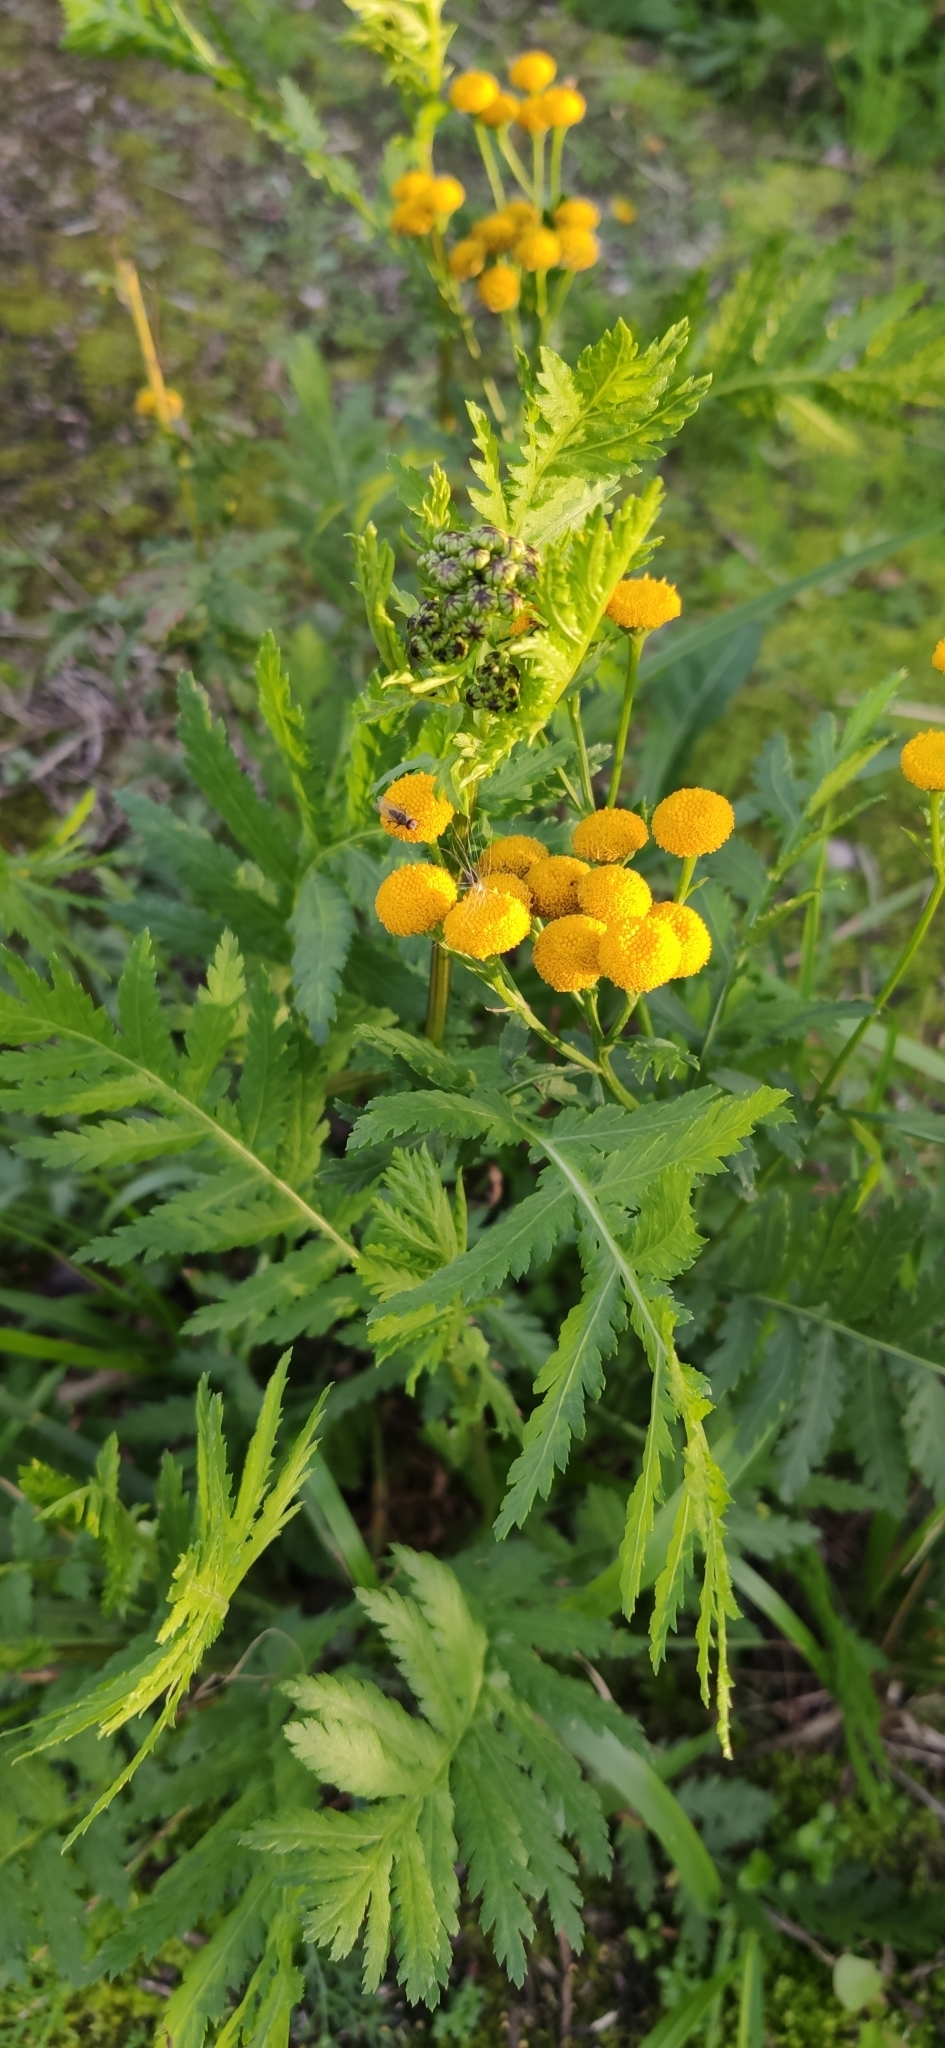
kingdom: Plantae
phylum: Tracheophyta
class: Magnoliopsida
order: Asterales
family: Asteraceae
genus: Tanacetum
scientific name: Tanacetum vulgare
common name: Common tansy
